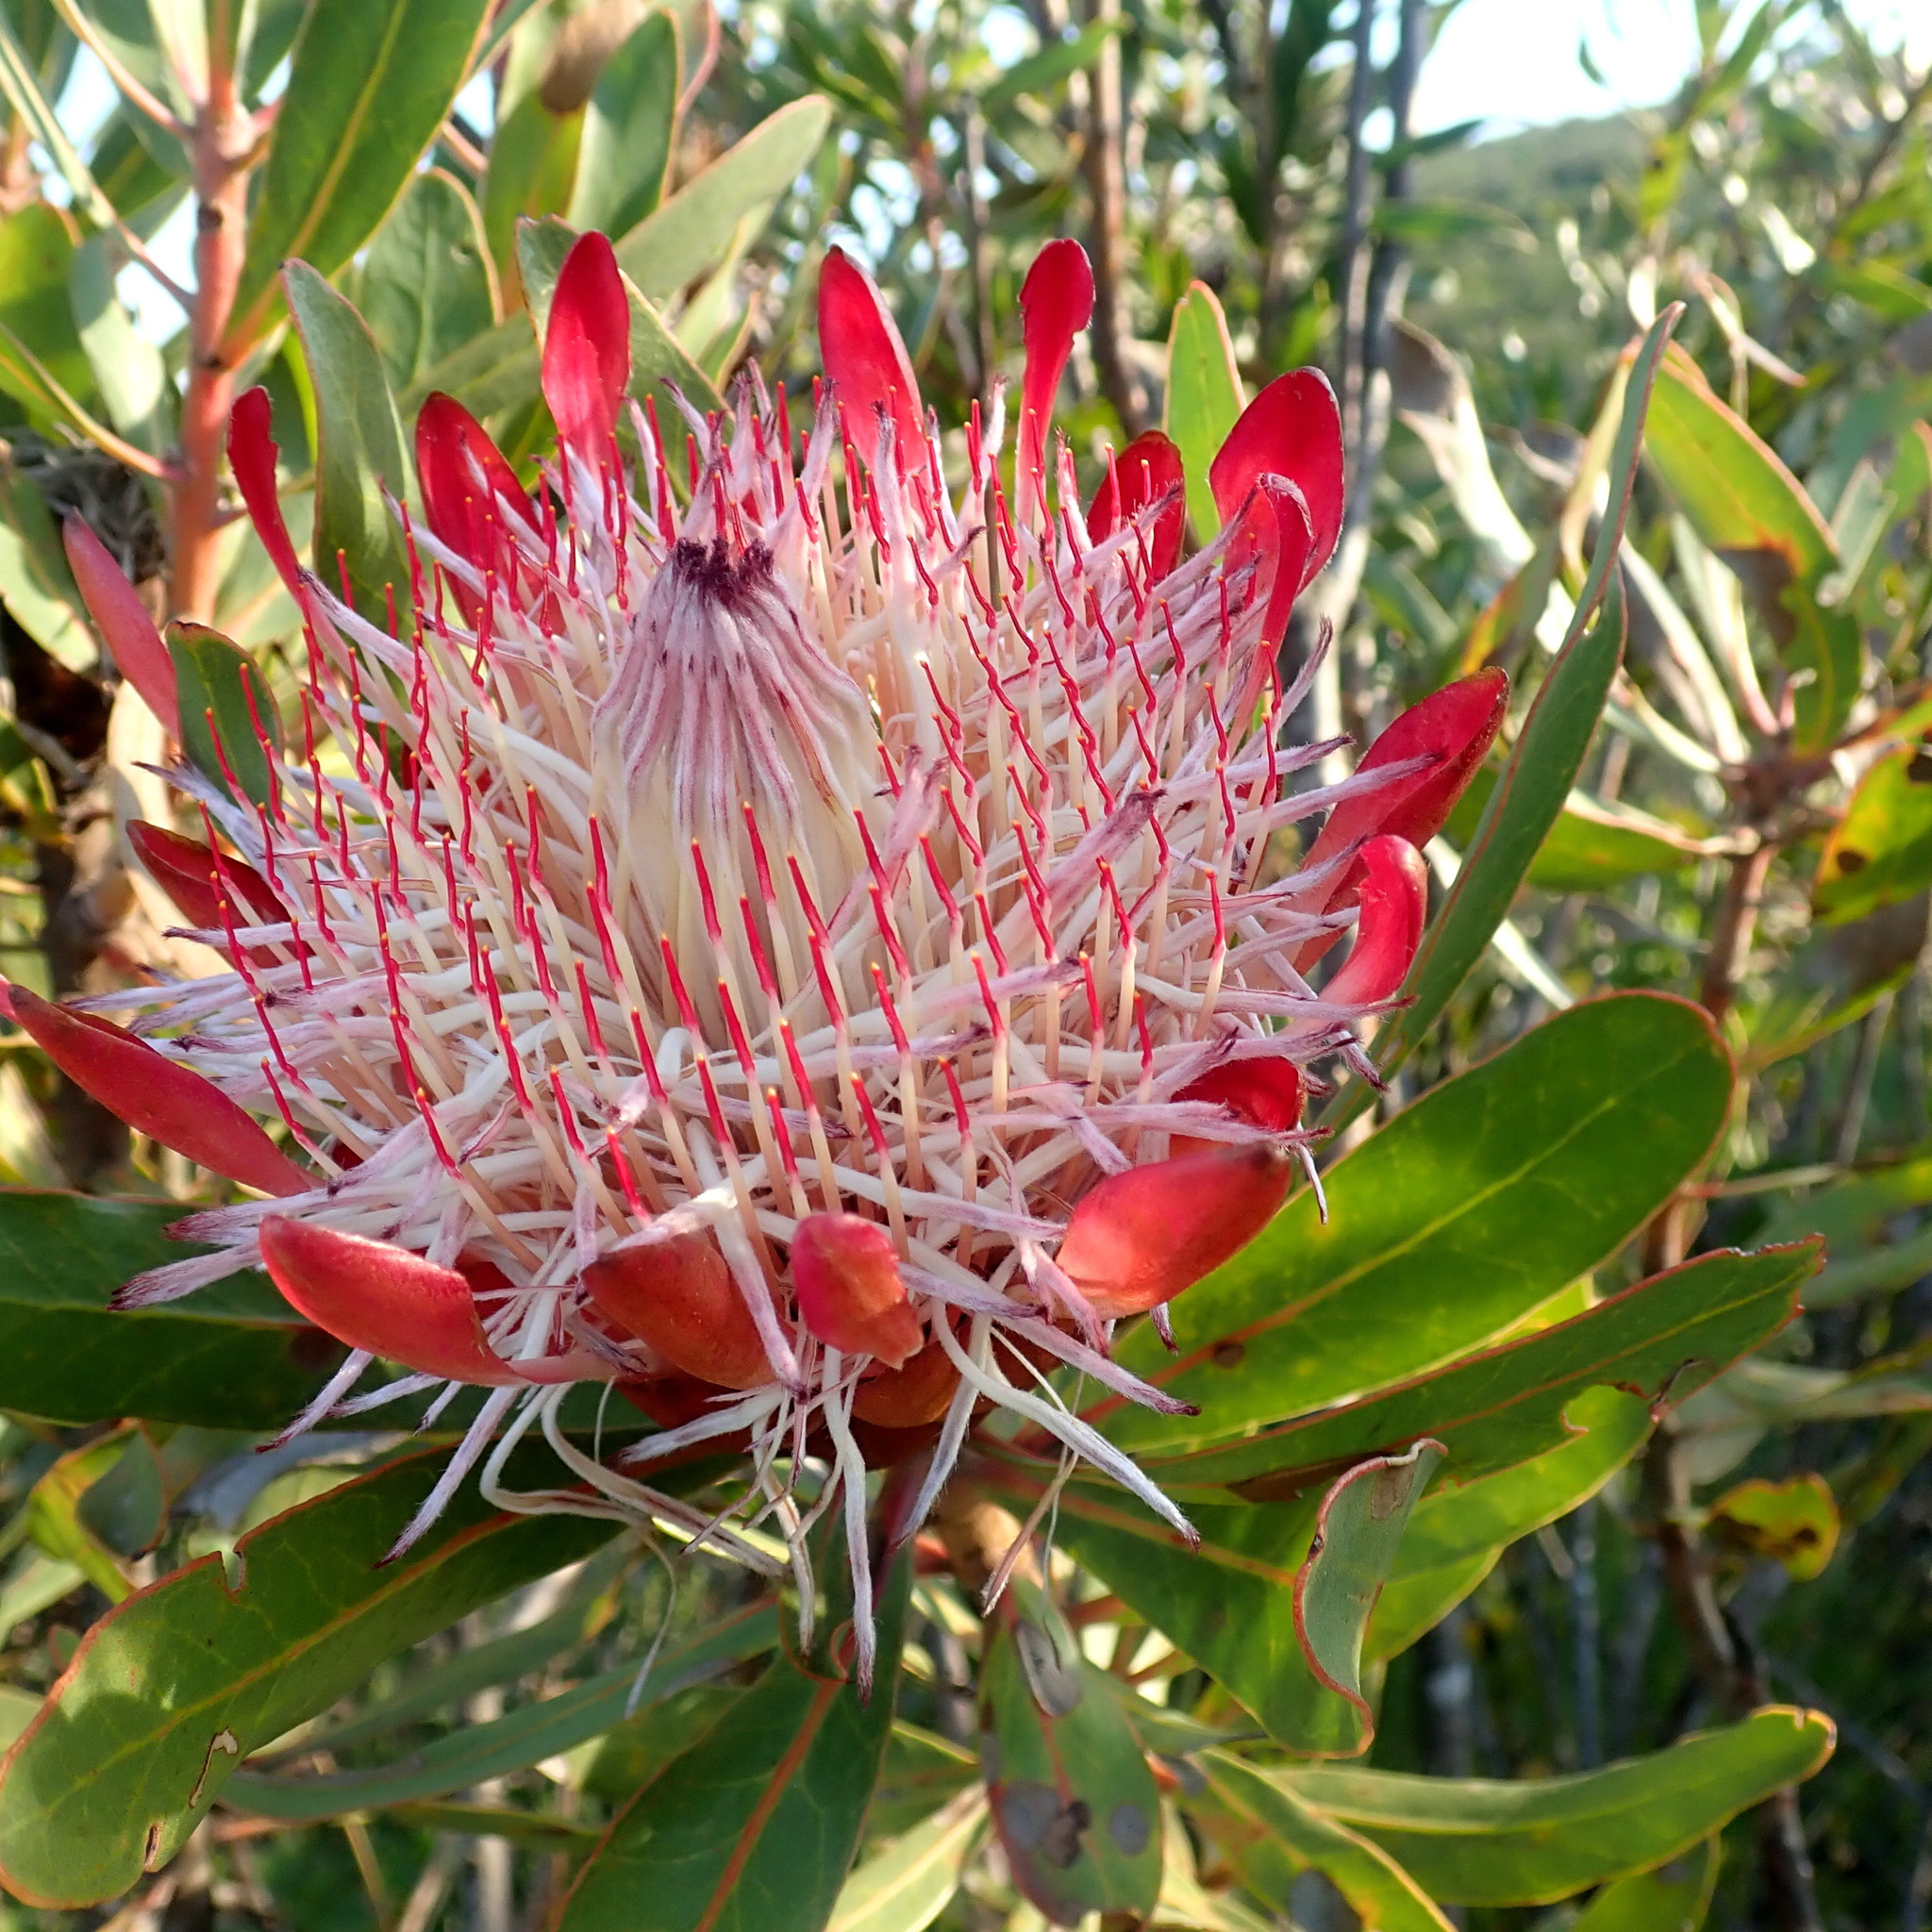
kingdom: Plantae
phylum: Tracheophyta
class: Magnoliopsida
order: Proteales
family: Proteaceae
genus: Protea
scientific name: Protea susannae
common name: Foetid-leaf sugarbush
